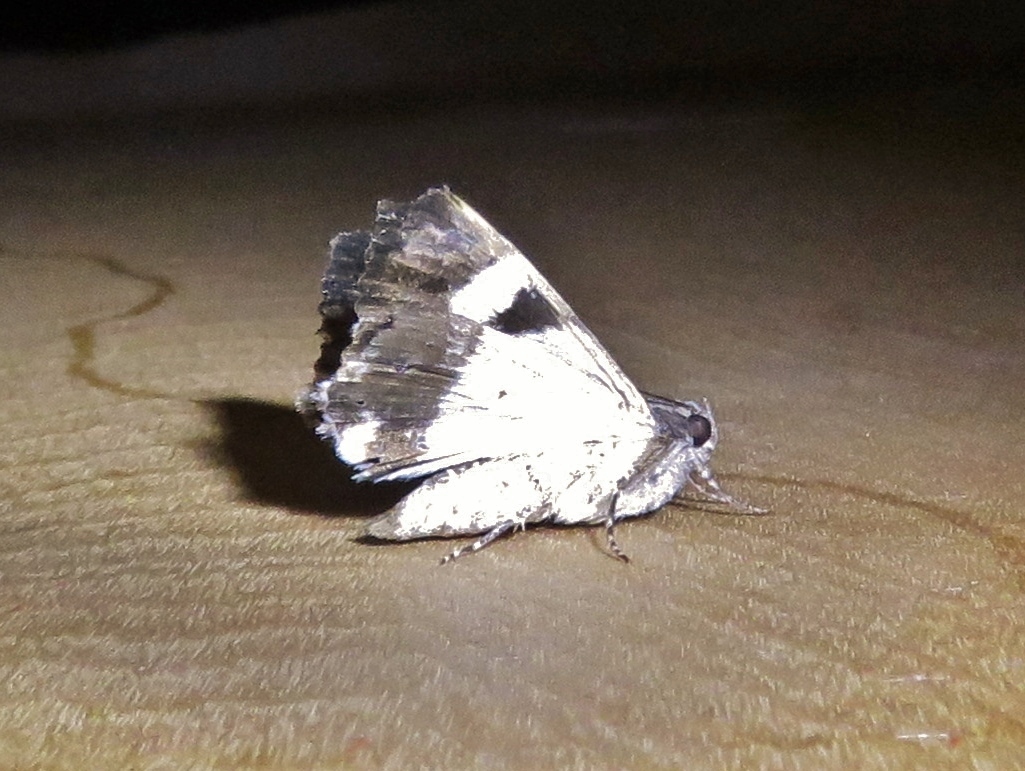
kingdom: Animalia
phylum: Arthropoda
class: Insecta
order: Lepidoptera
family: Erebidae
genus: Melipotis
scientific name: Melipotis jucunda
